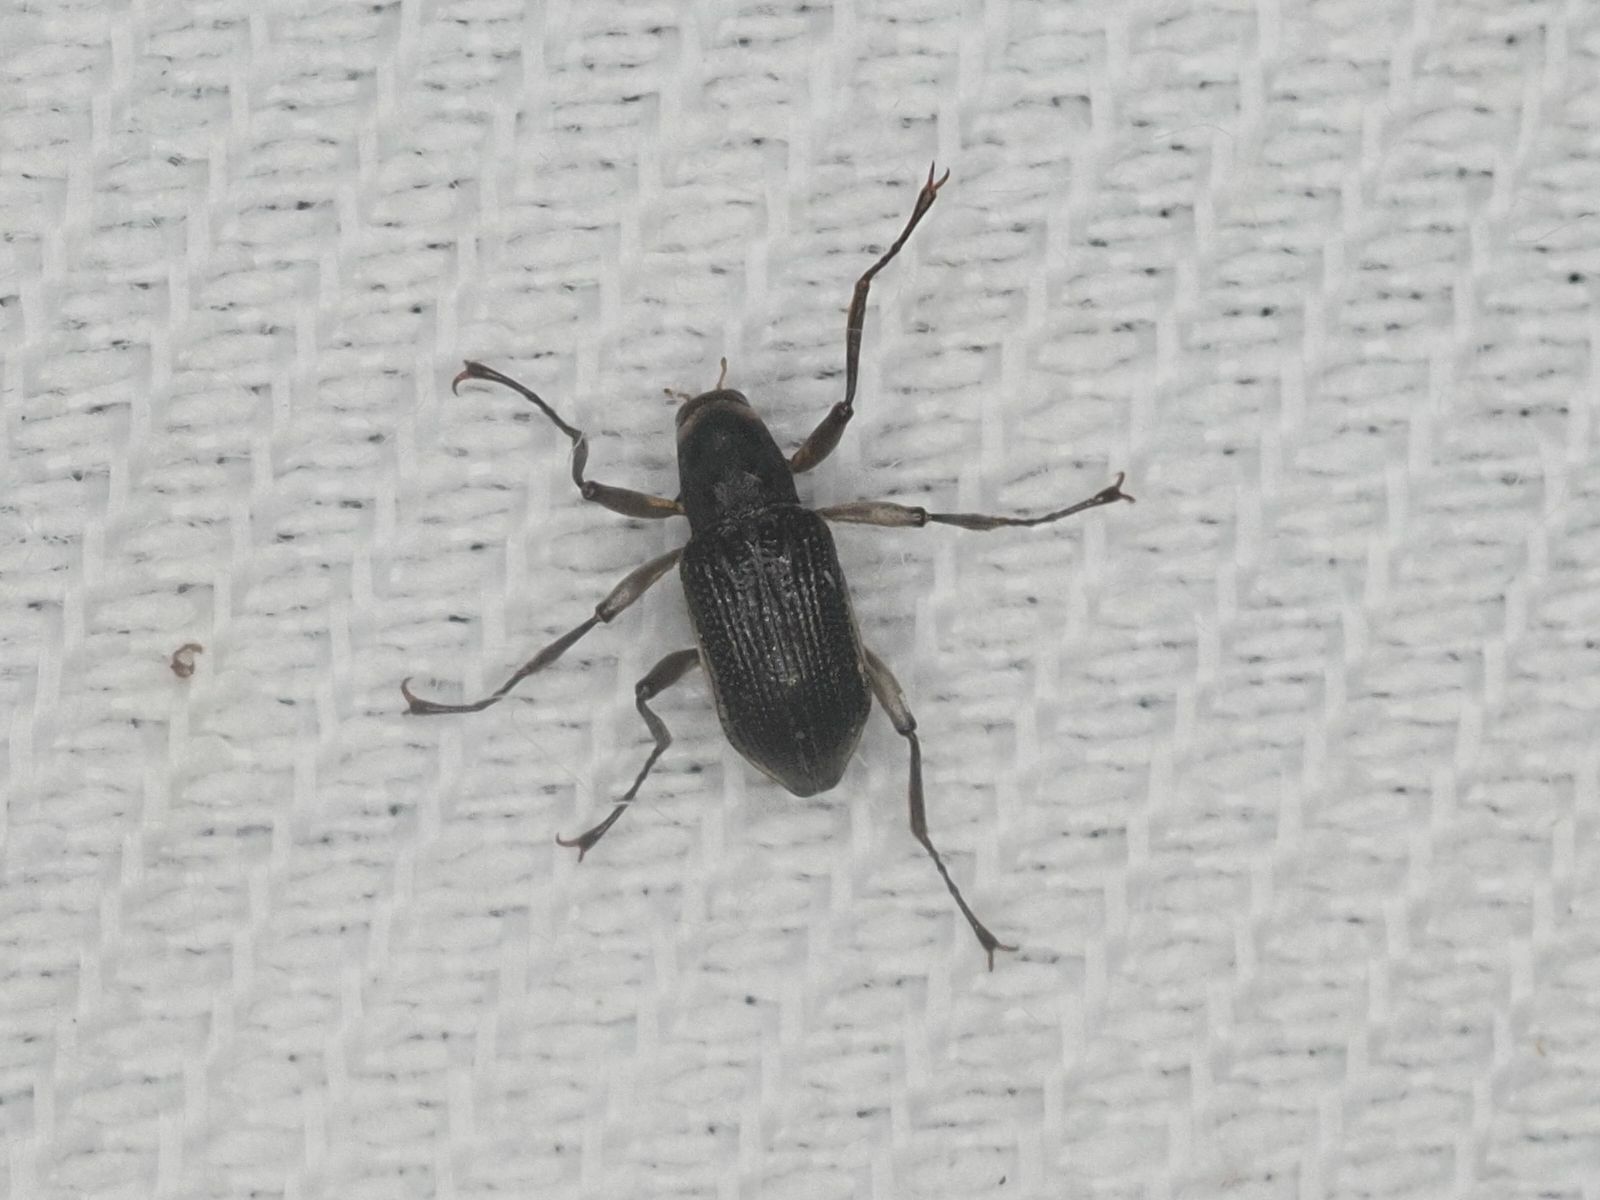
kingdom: Animalia
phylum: Arthropoda
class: Insecta
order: Coleoptera
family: Elmidae
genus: Macronychus
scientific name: Macronychus quadrituberculatus
